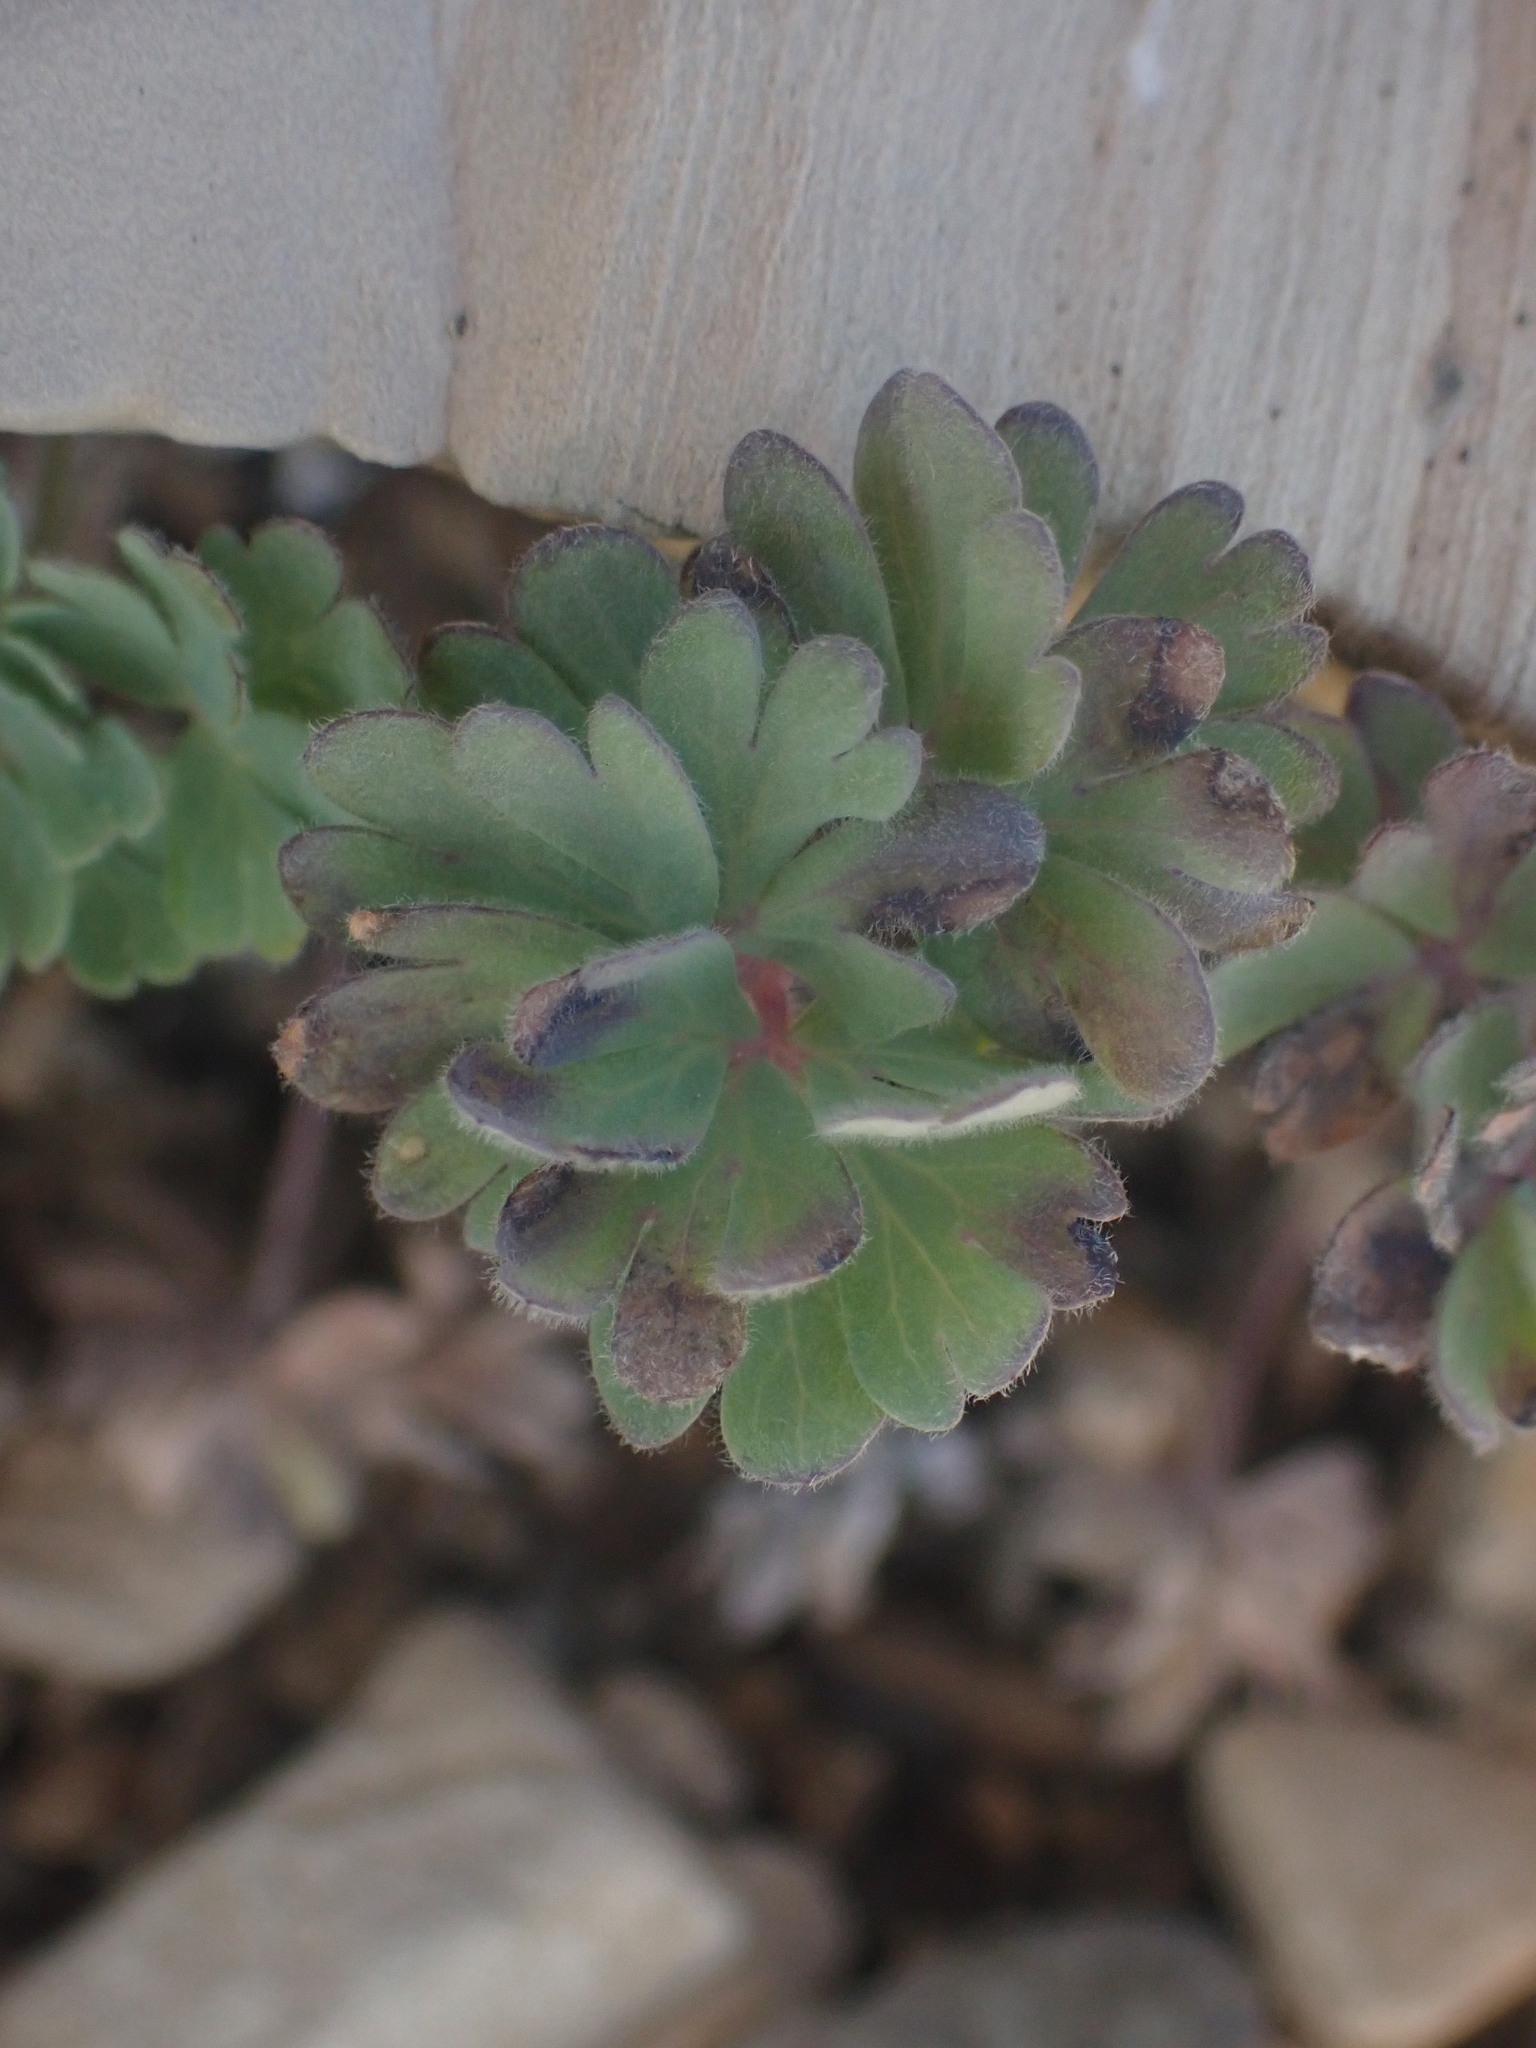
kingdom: Plantae
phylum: Tracheophyta
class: Magnoliopsida
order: Ranunculales
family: Ranunculaceae
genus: Aquilegia
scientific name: Aquilegia jonesii
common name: Jones' columbine
